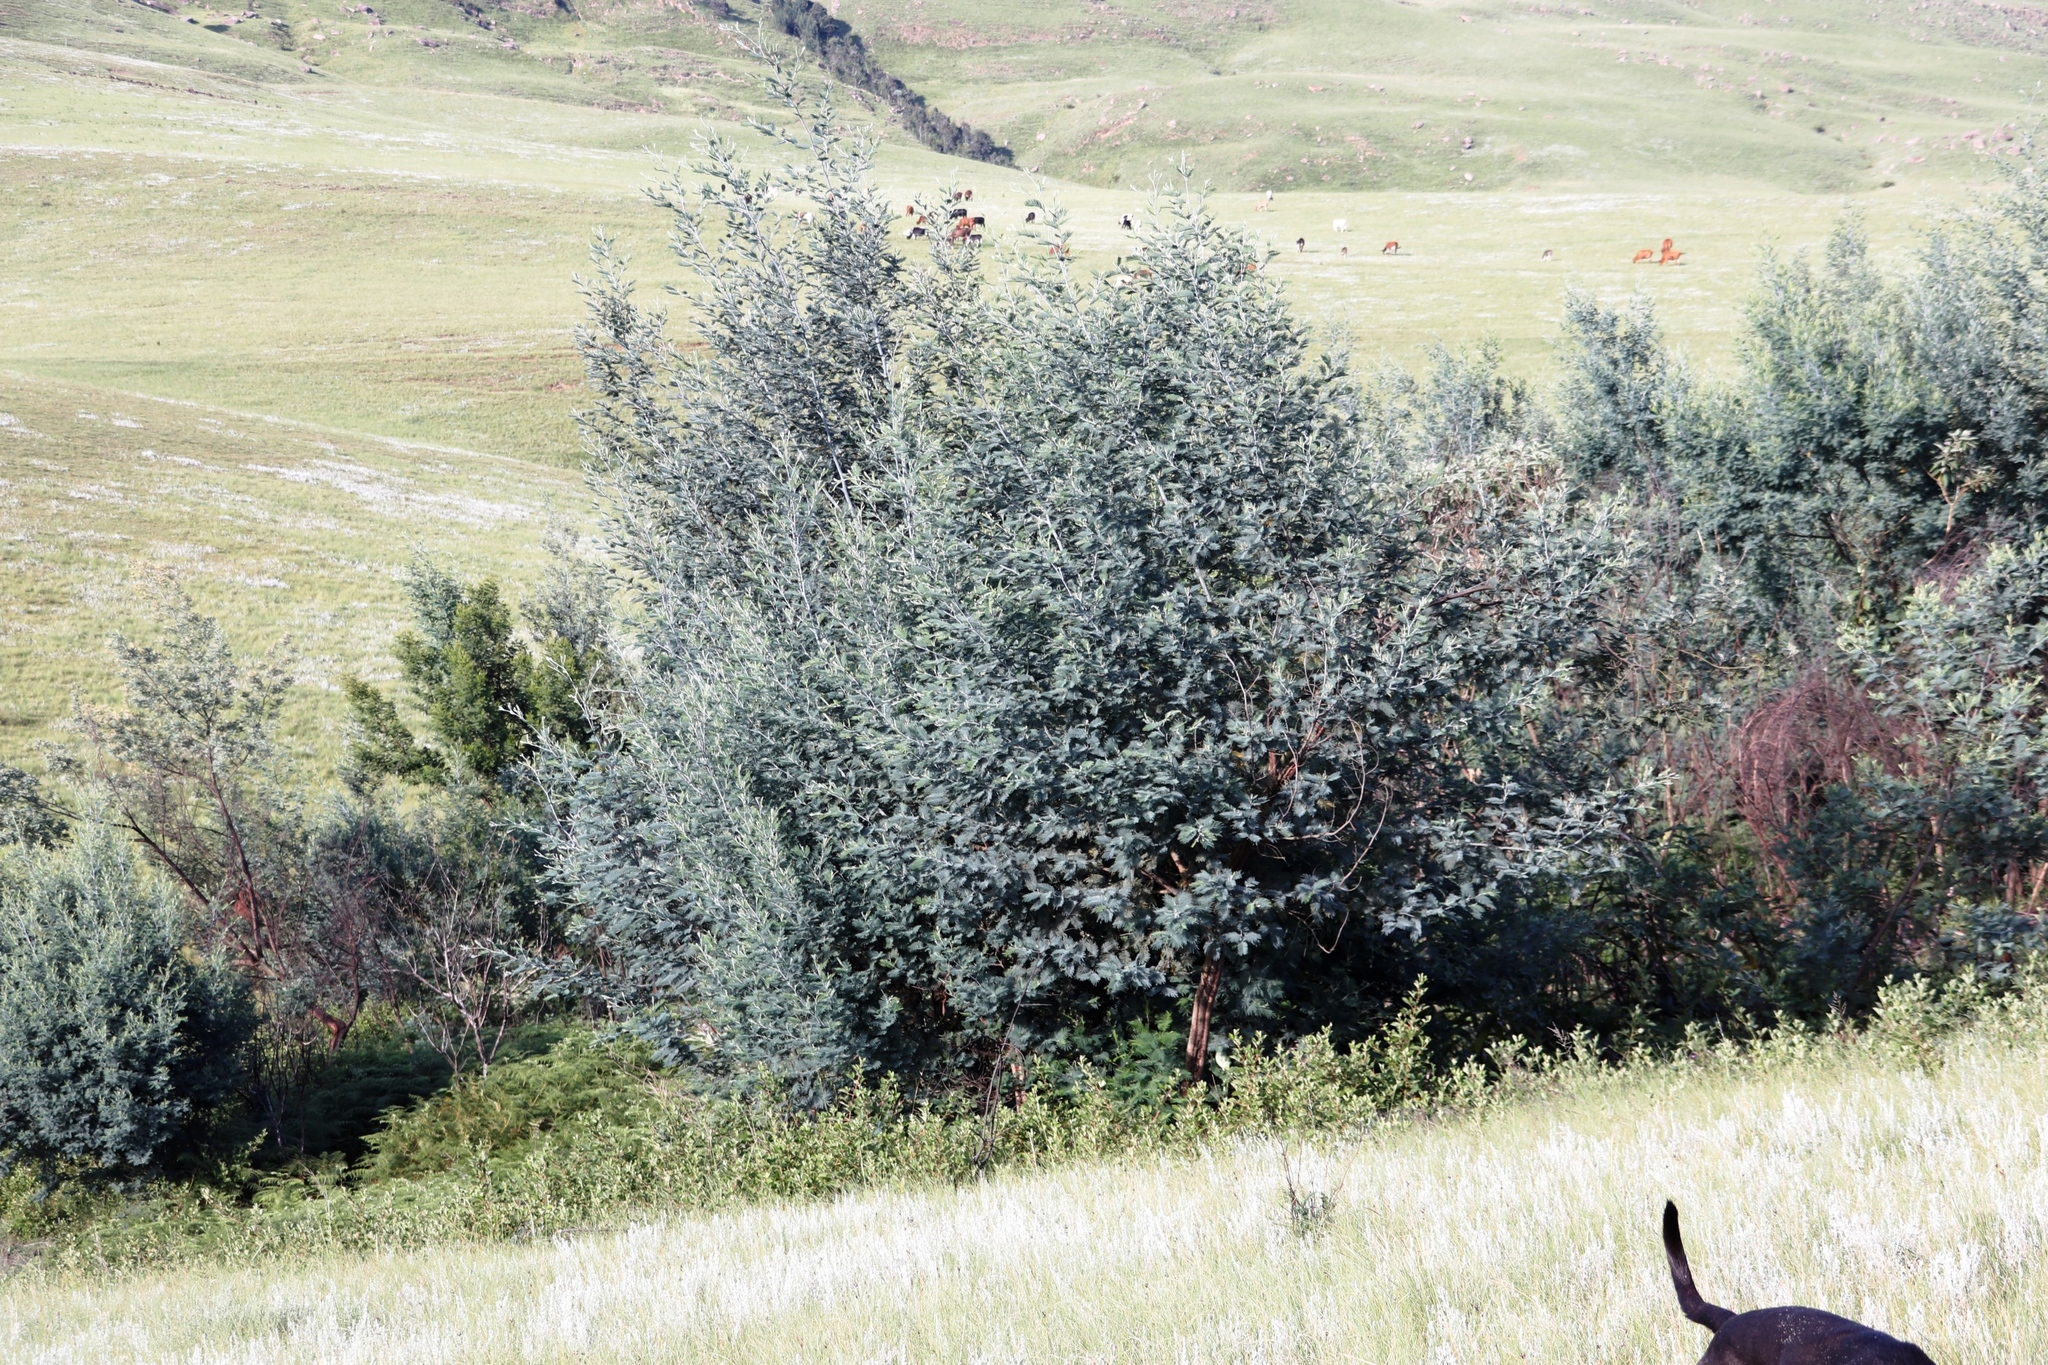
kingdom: Plantae
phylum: Tracheophyta
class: Magnoliopsida
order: Fabales
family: Fabaceae
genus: Acacia
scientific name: Acacia dealbata
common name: Silver wattle
